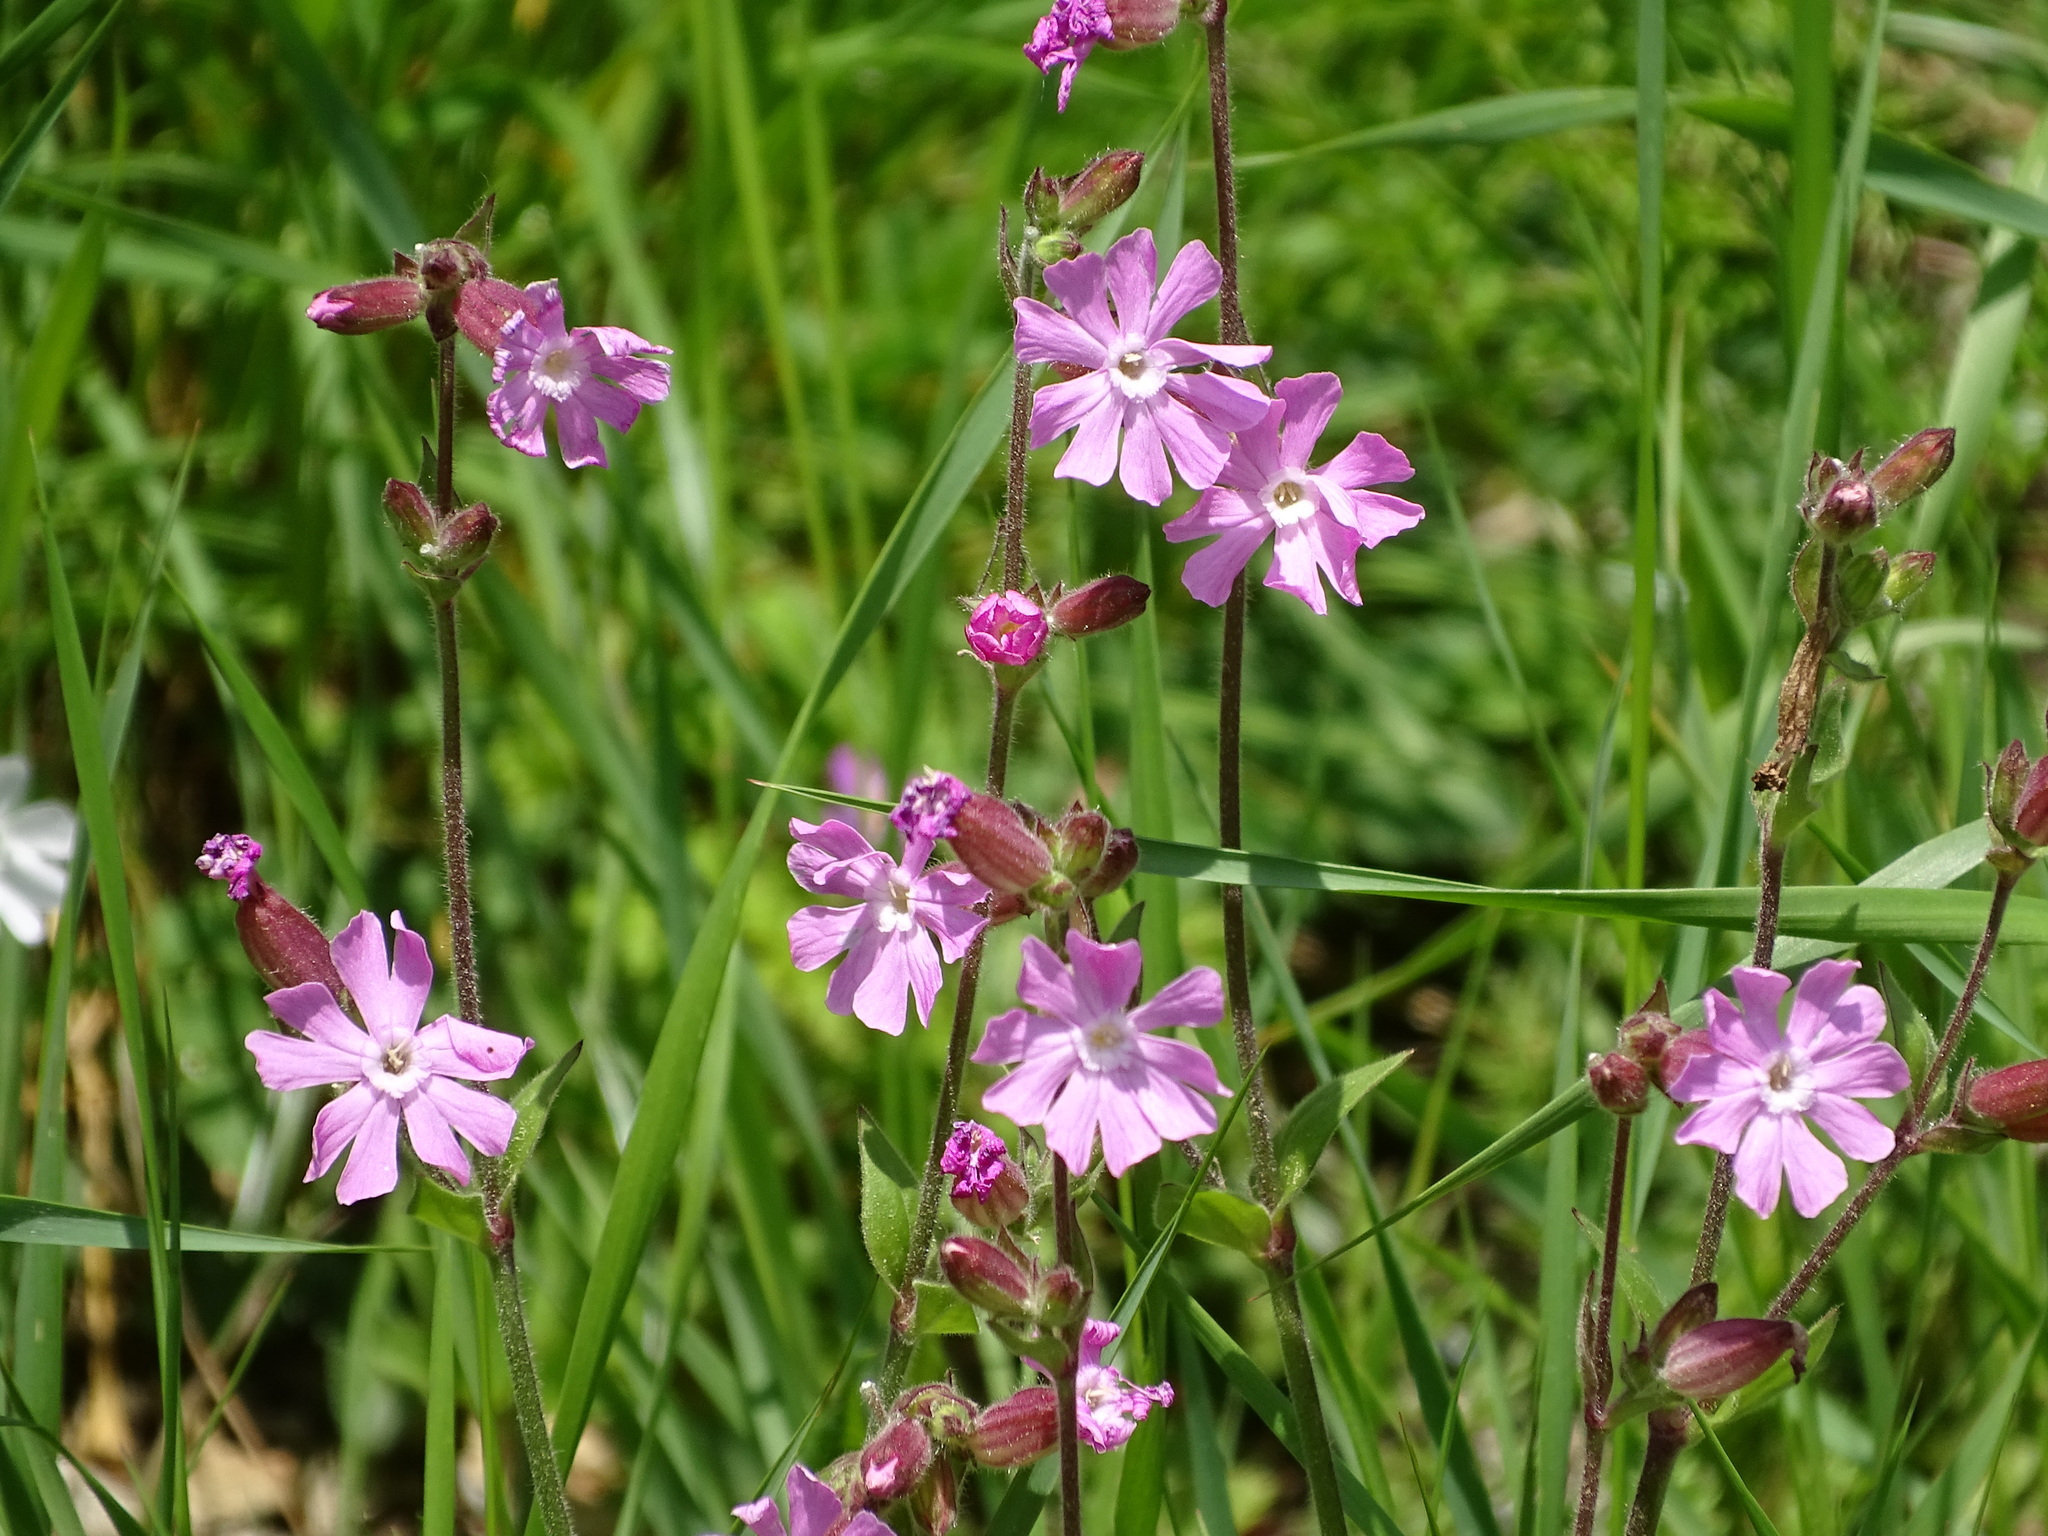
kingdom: Plantae
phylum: Tracheophyta
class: Magnoliopsida
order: Caryophyllales
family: Caryophyllaceae
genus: Silene
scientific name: Silene dioica
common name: Red campion
